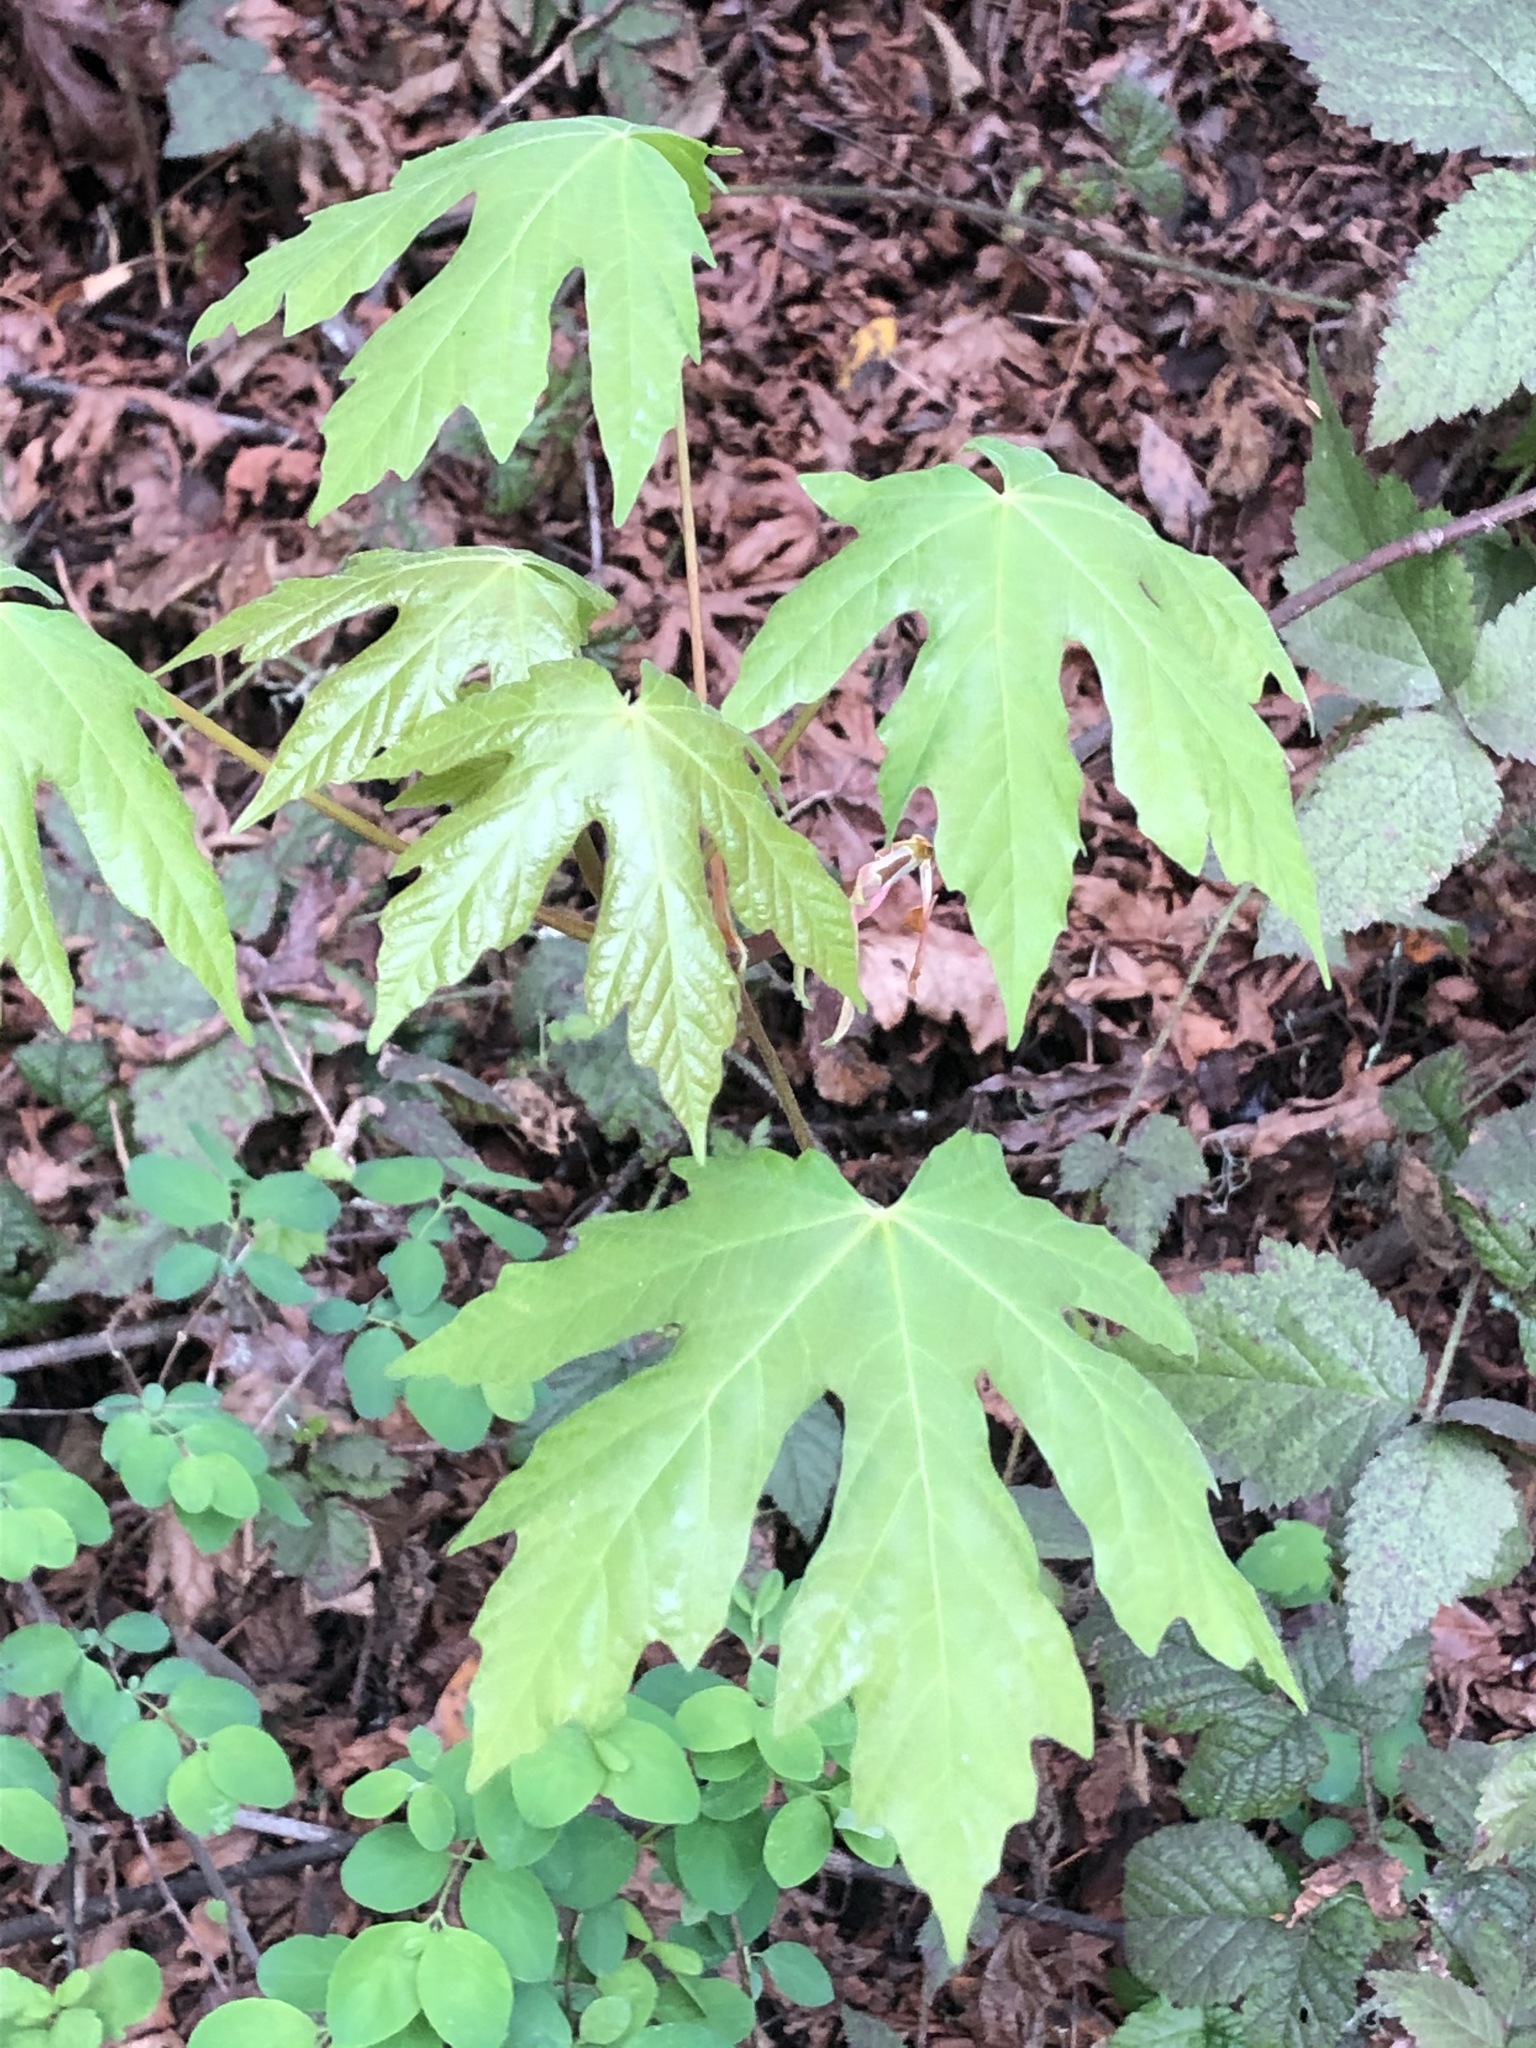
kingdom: Plantae
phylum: Tracheophyta
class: Magnoliopsida
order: Sapindales
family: Sapindaceae
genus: Acer
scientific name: Acer macrophyllum
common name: Oregon maple
